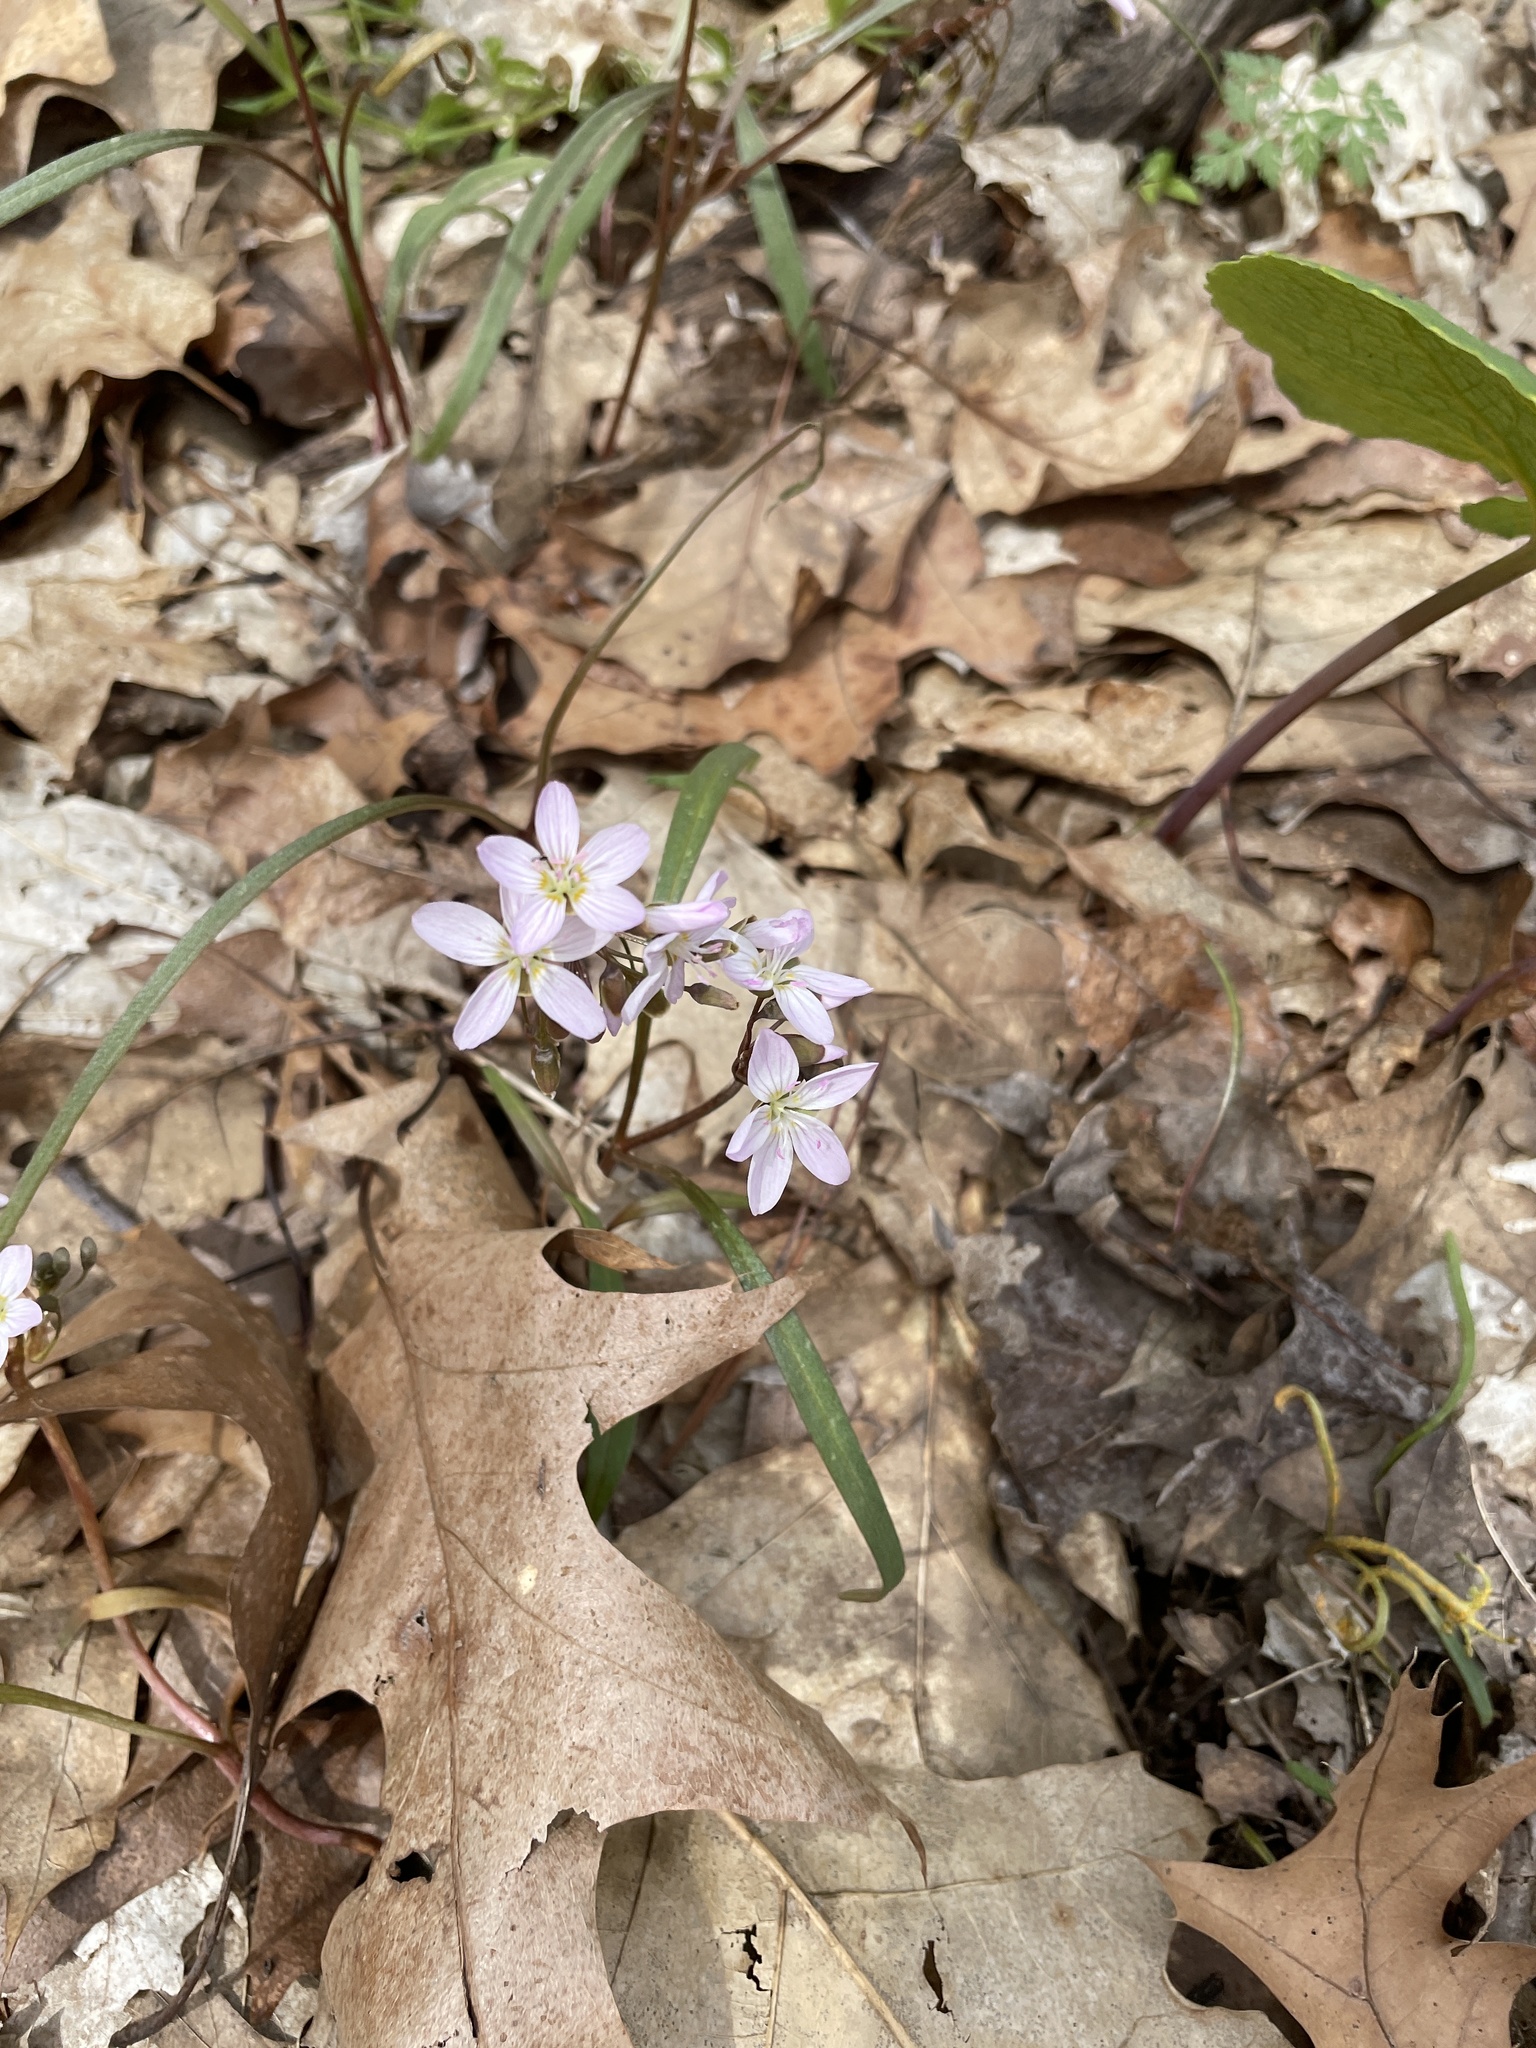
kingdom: Plantae
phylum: Tracheophyta
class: Magnoliopsida
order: Caryophyllales
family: Montiaceae
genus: Claytonia
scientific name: Claytonia virginica
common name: Virginia springbeauty
